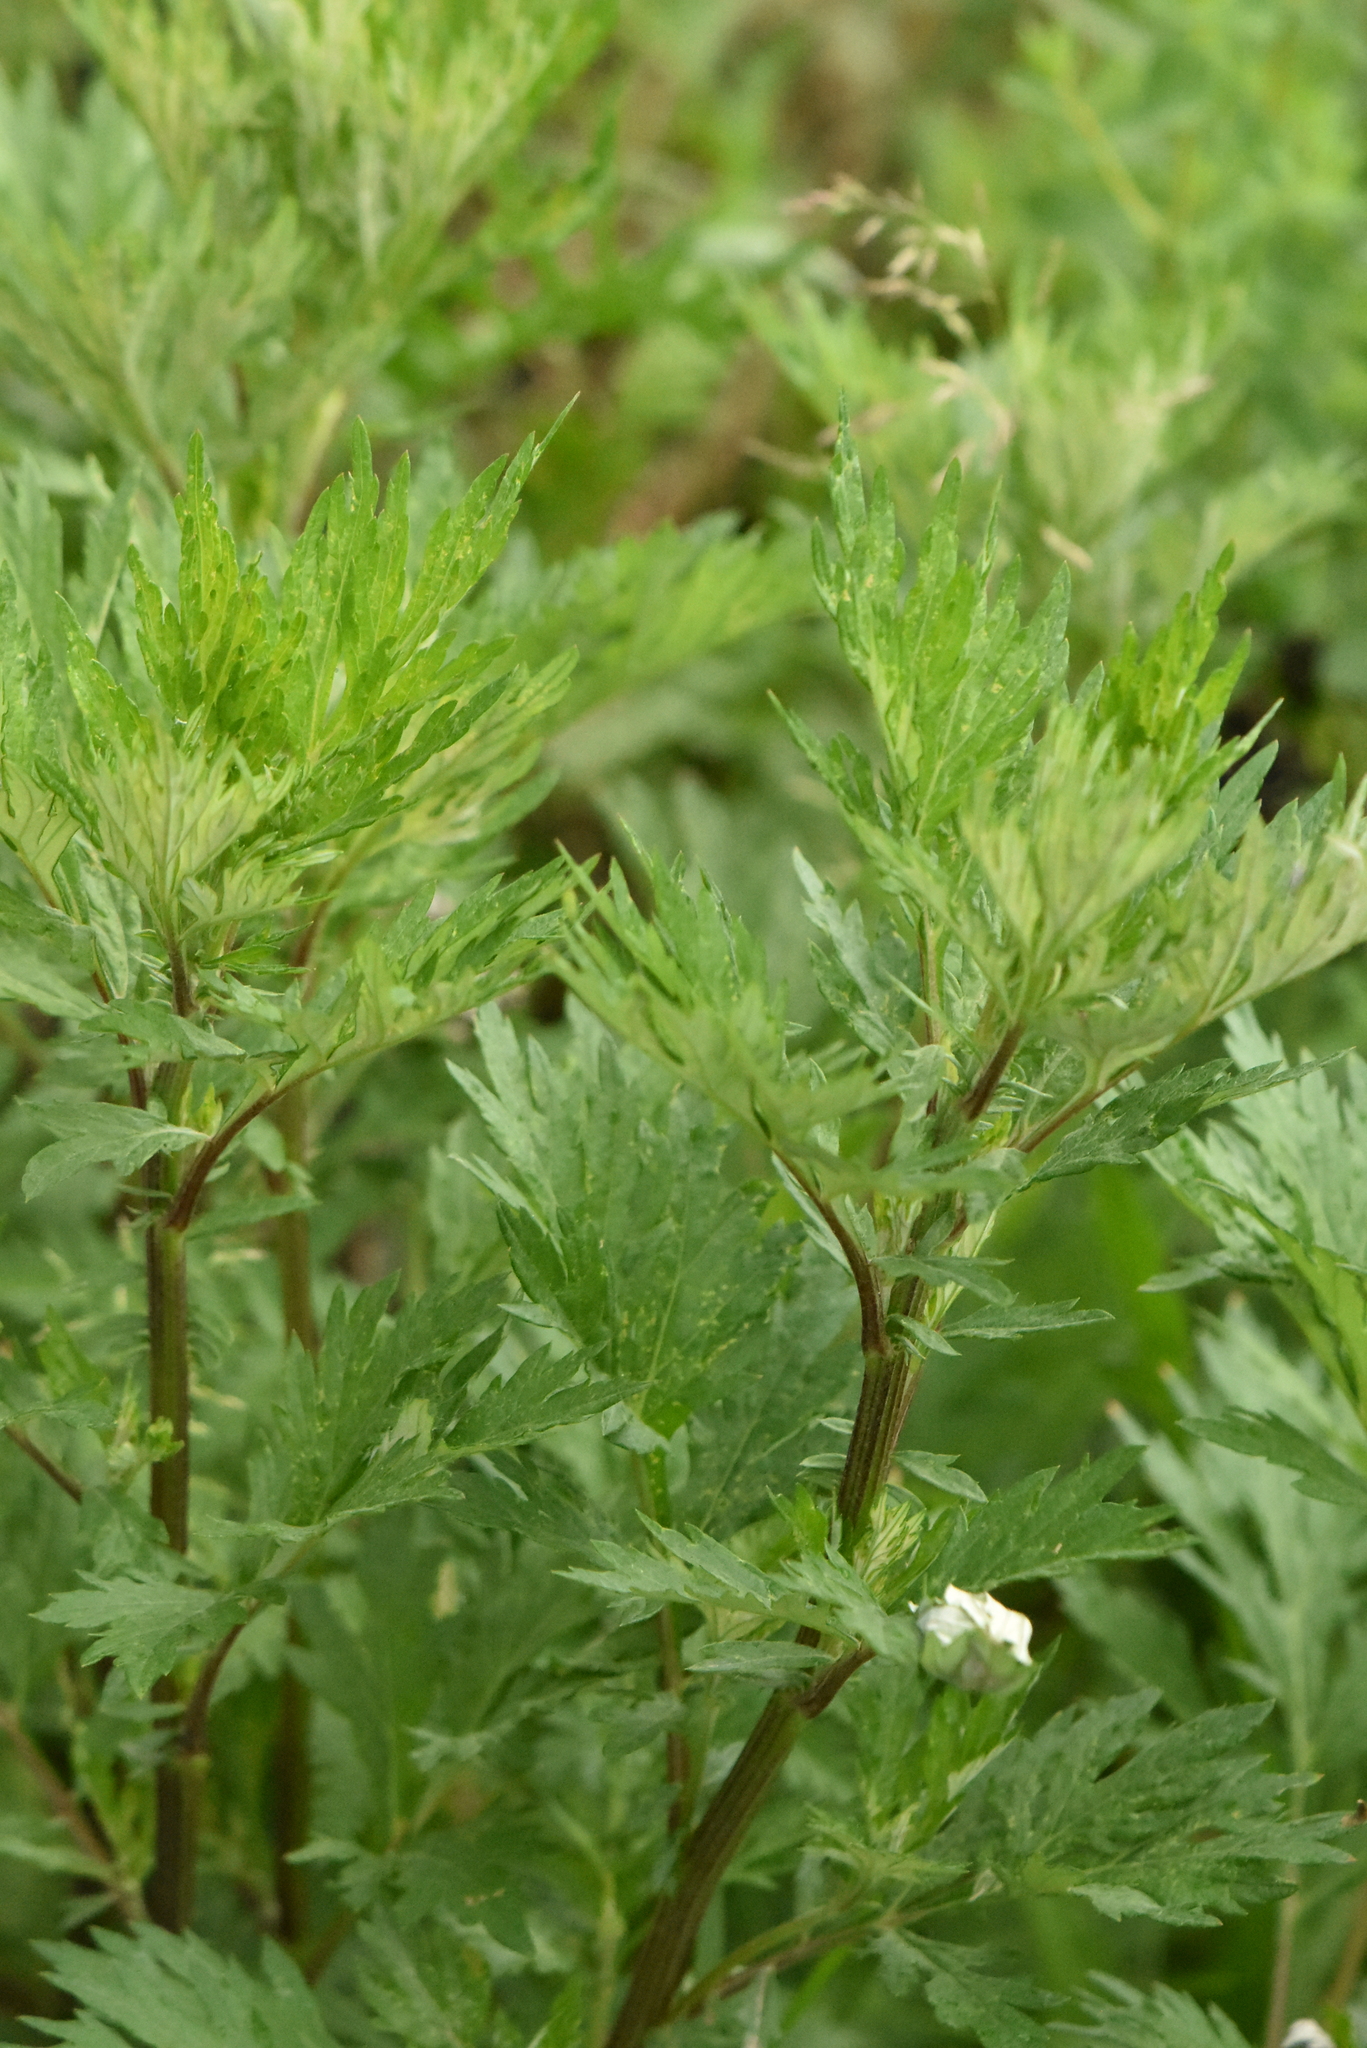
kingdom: Plantae
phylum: Tracheophyta
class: Magnoliopsida
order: Asterales
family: Asteraceae
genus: Artemisia
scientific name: Artemisia vulgaris
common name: Mugwort
